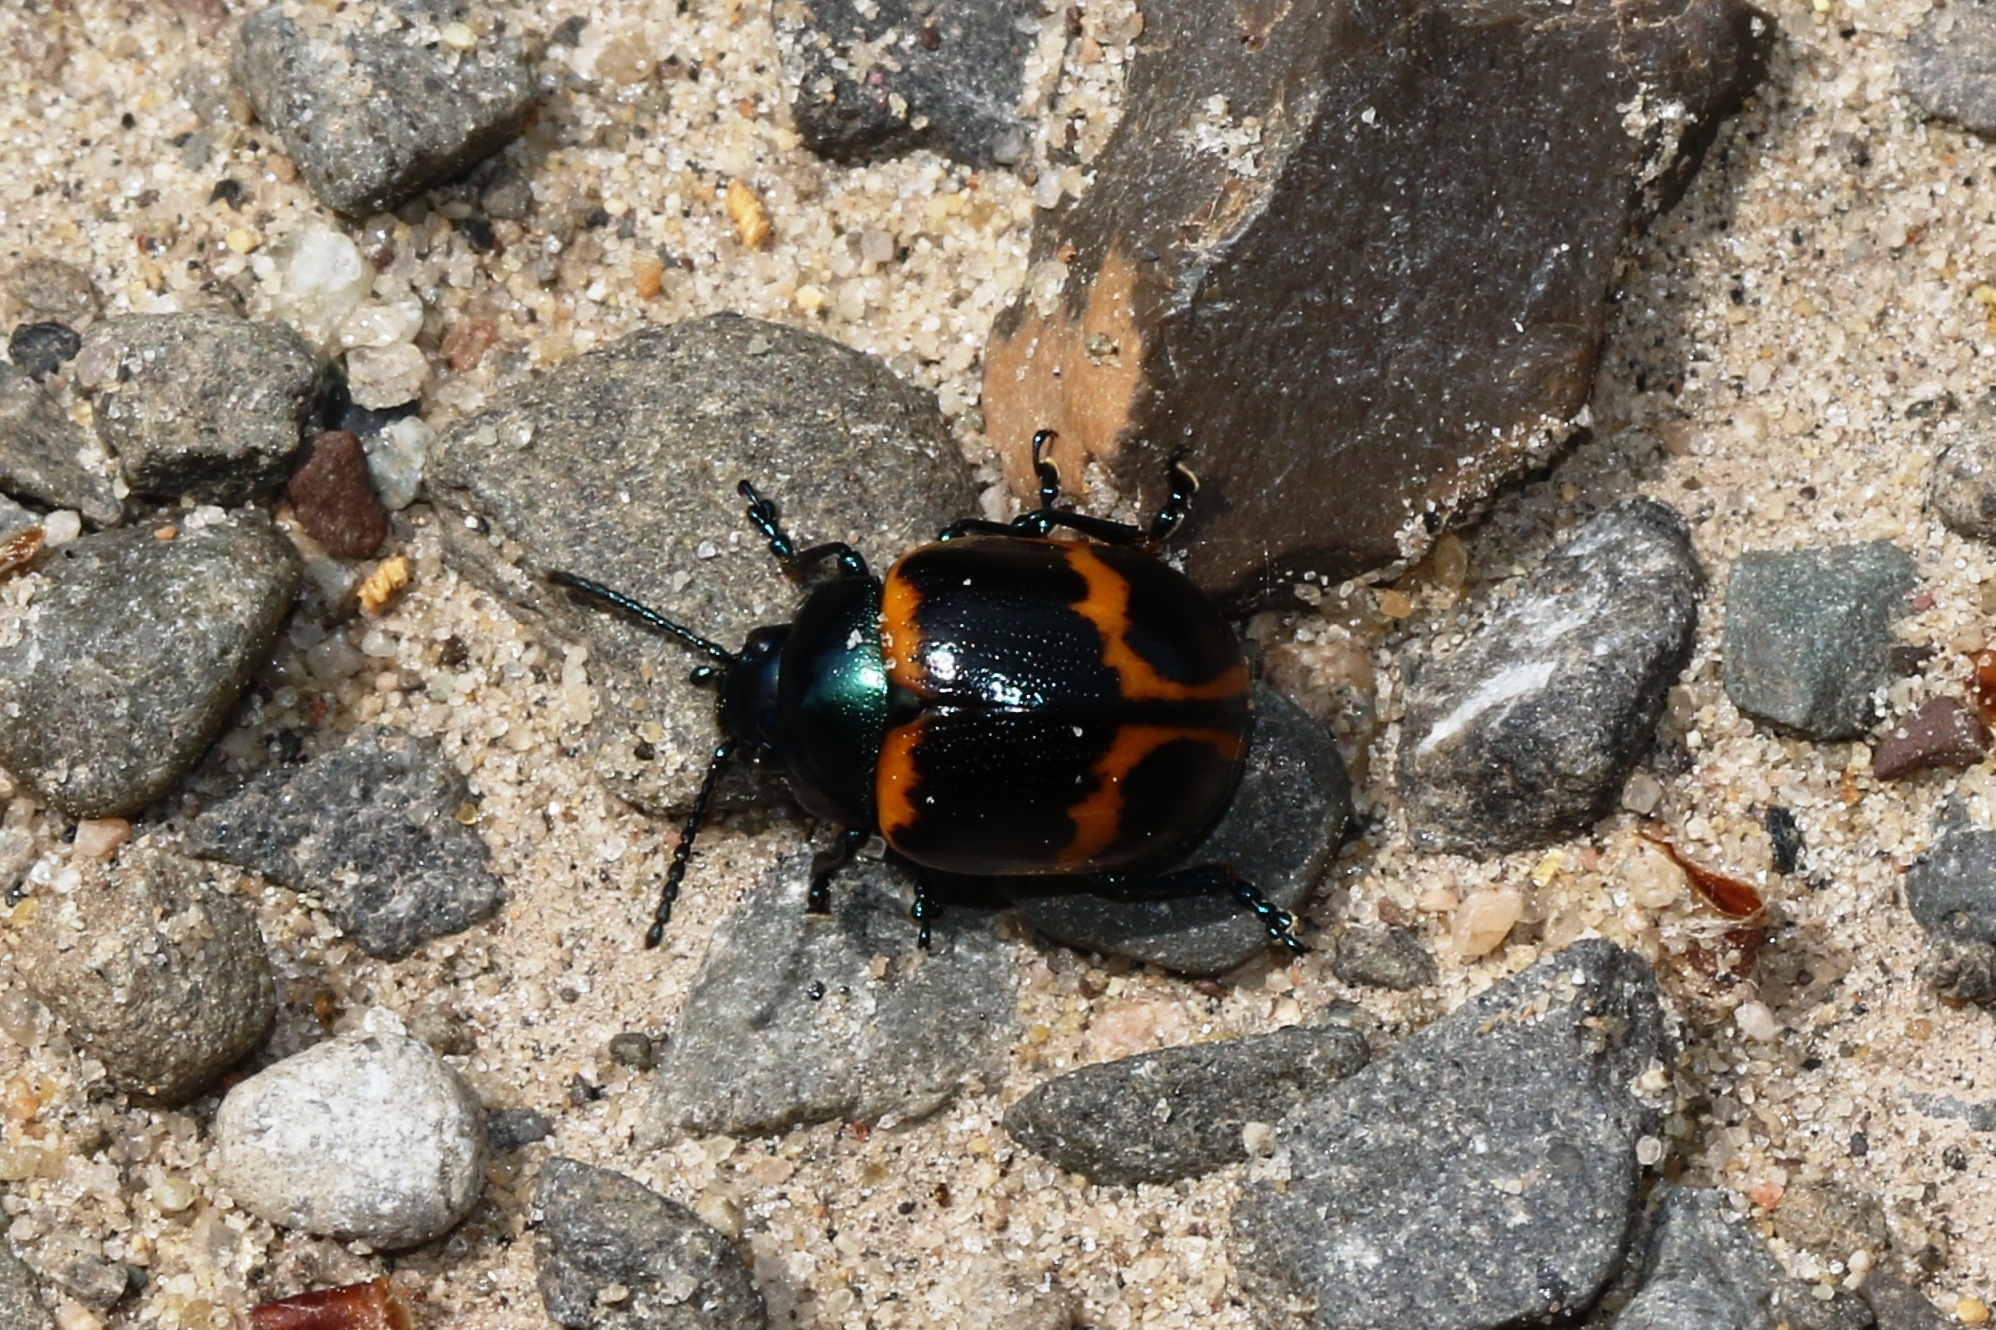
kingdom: Animalia
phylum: Arthropoda
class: Insecta
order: Coleoptera
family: Chrysomelidae
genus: Labidomera
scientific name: Labidomera clivicollis
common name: Swamp milkweed leaf beetle
